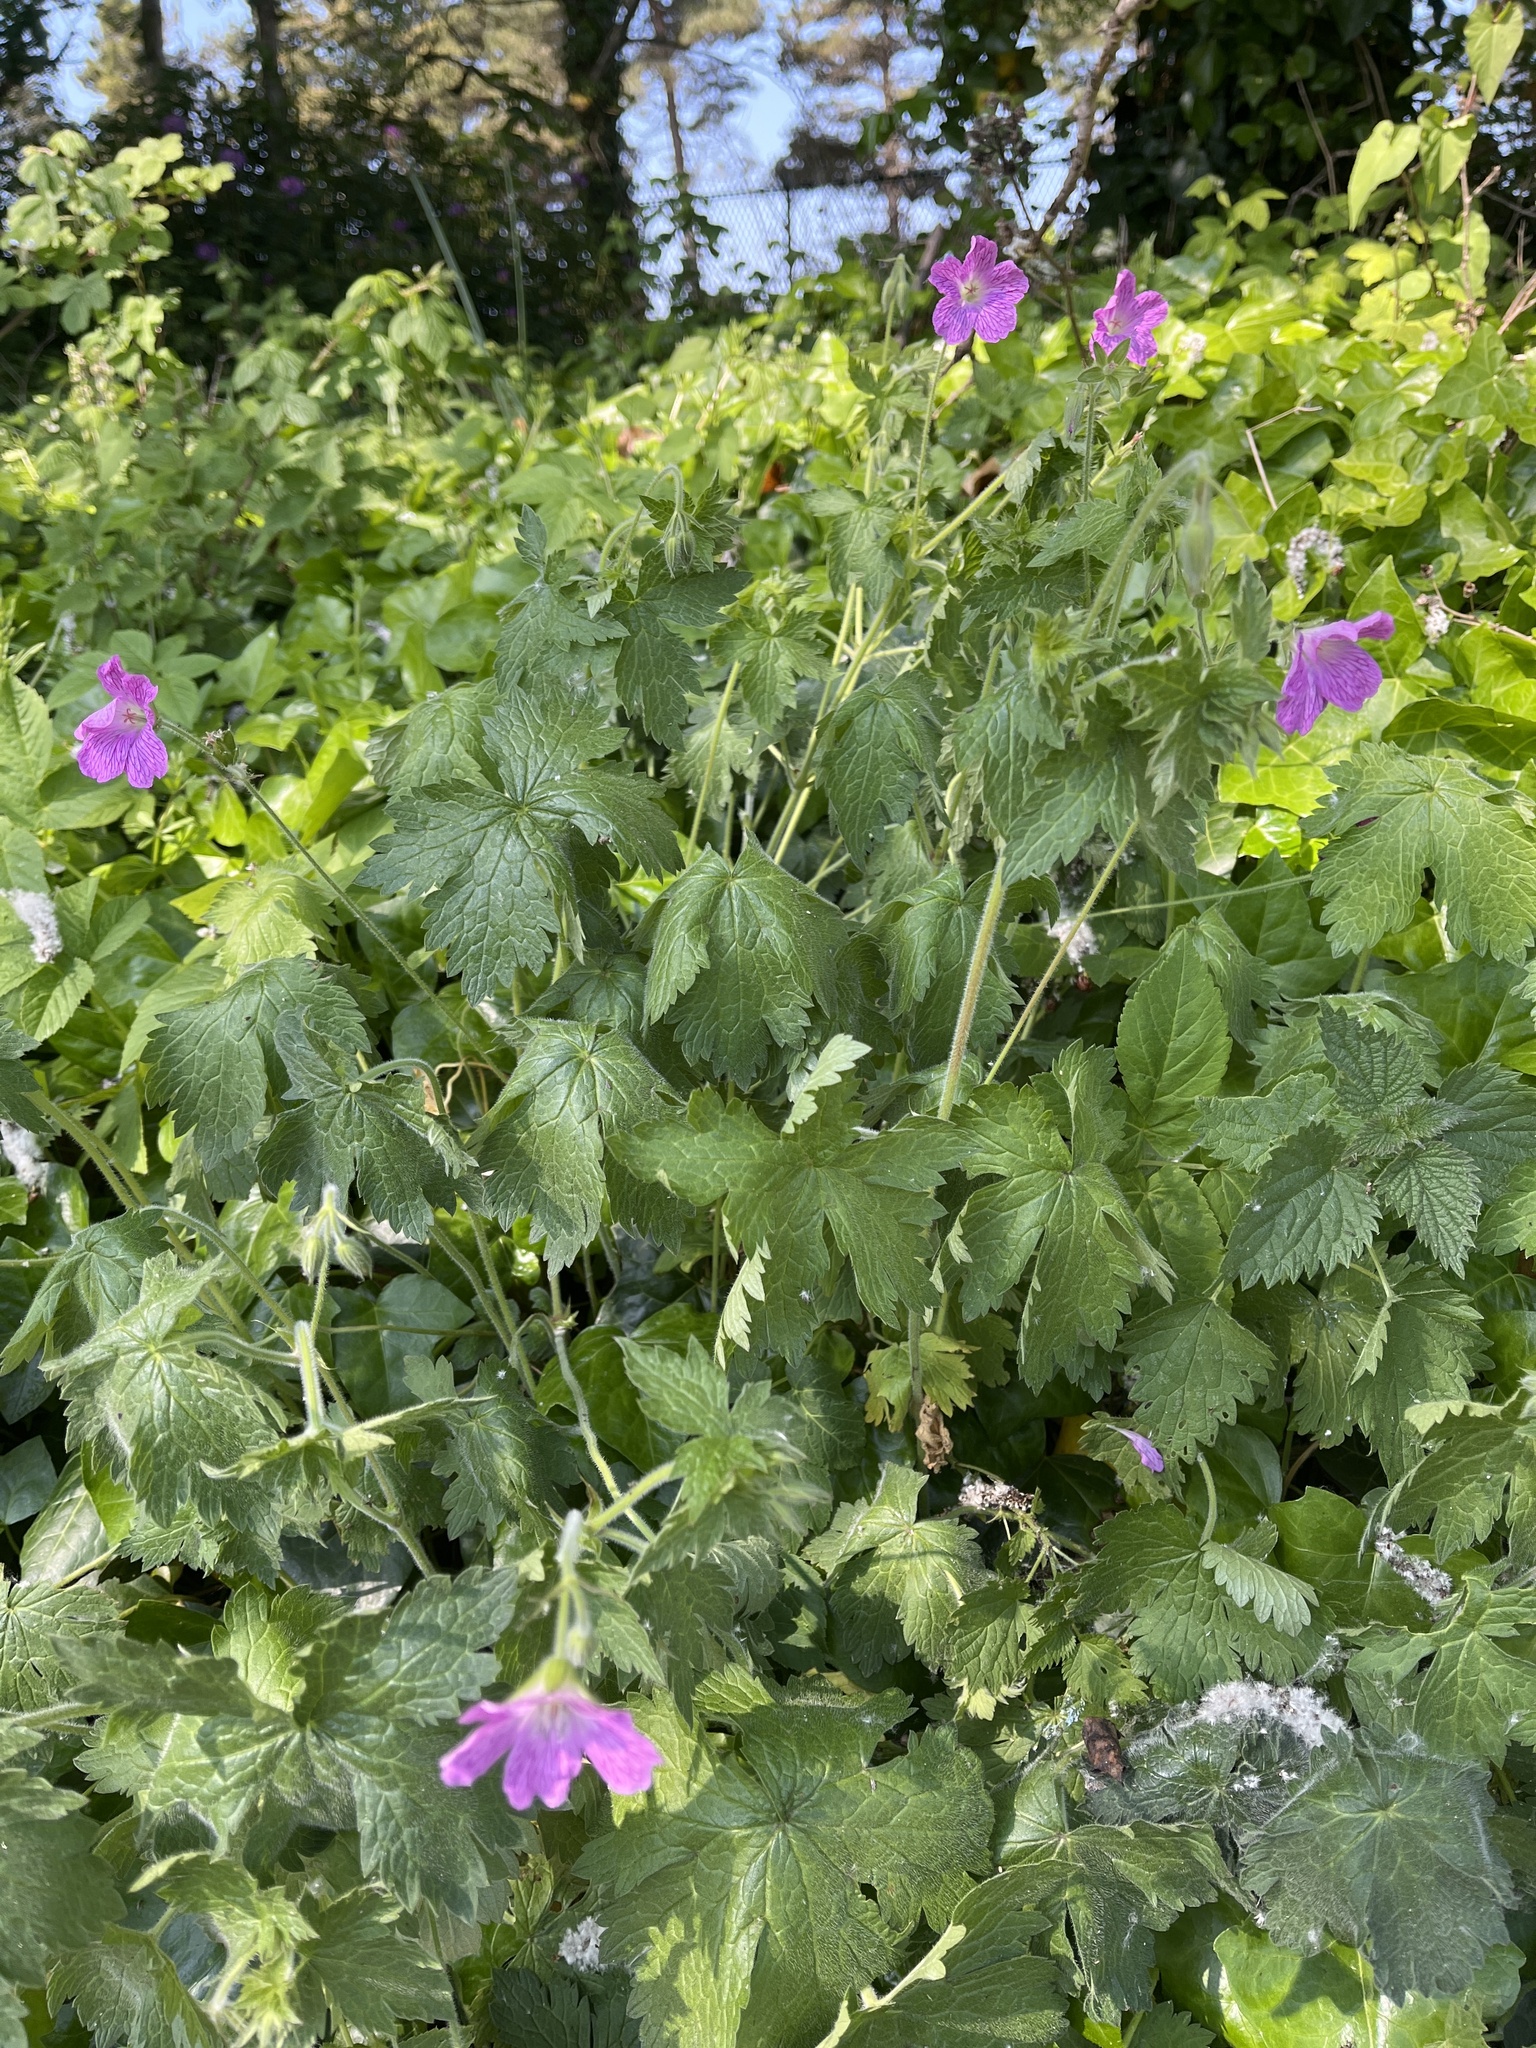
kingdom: Plantae
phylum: Tracheophyta
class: Magnoliopsida
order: Geraniales
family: Geraniaceae
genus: Geranium
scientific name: Geranium oxonianum
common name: Druce's crane's-bill
